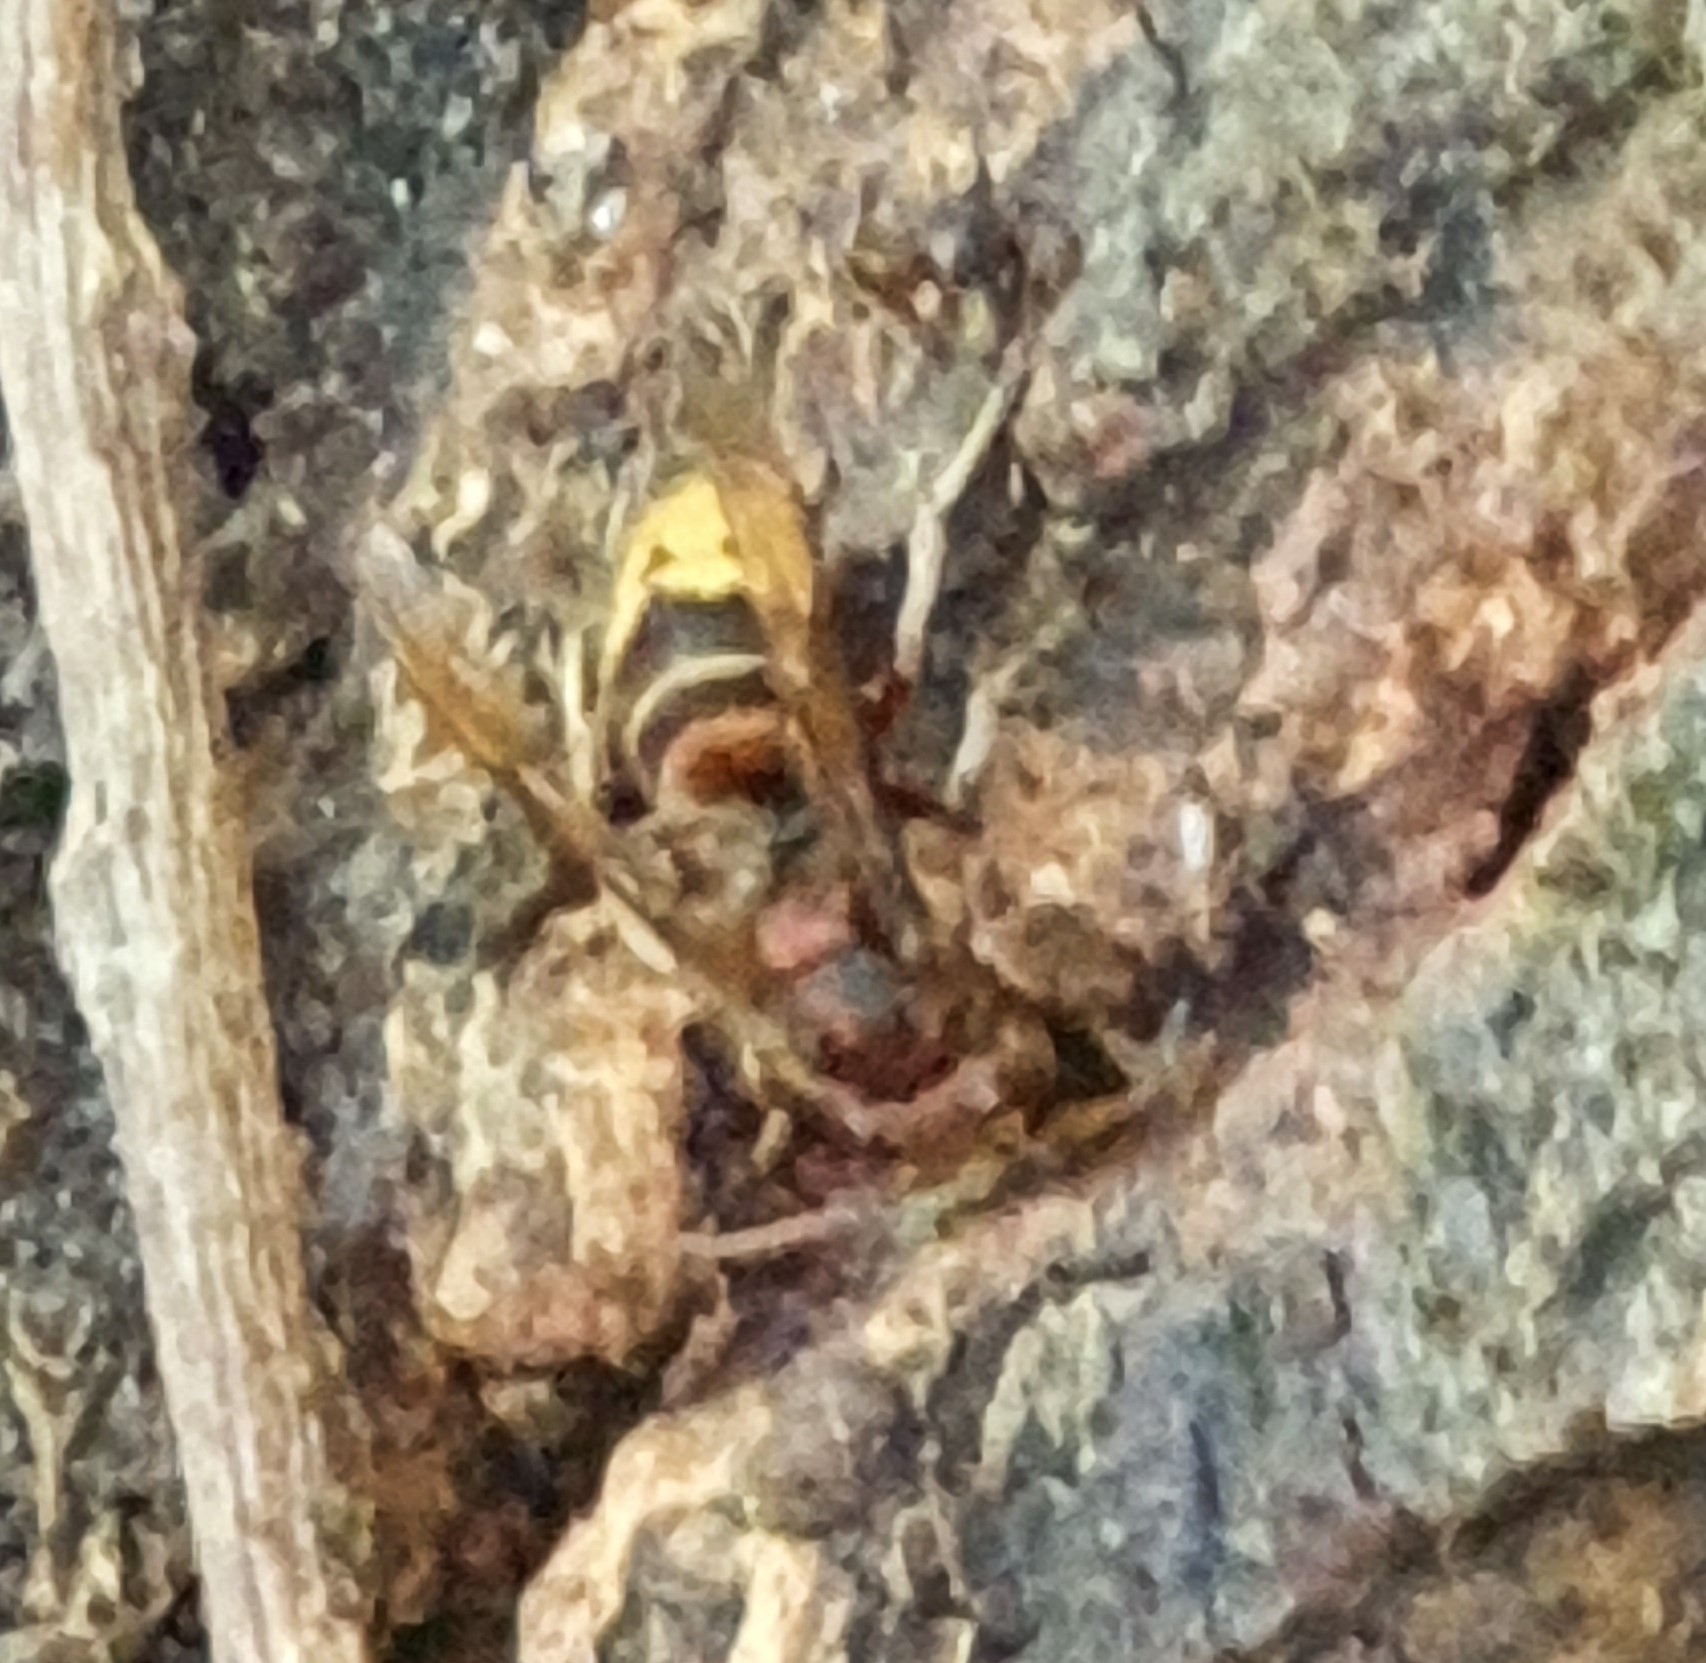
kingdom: Animalia
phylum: Arthropoda
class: Insecta
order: Hymenoptera
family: Vespidae
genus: Vespa
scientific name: Vespa crabro
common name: Hornet
